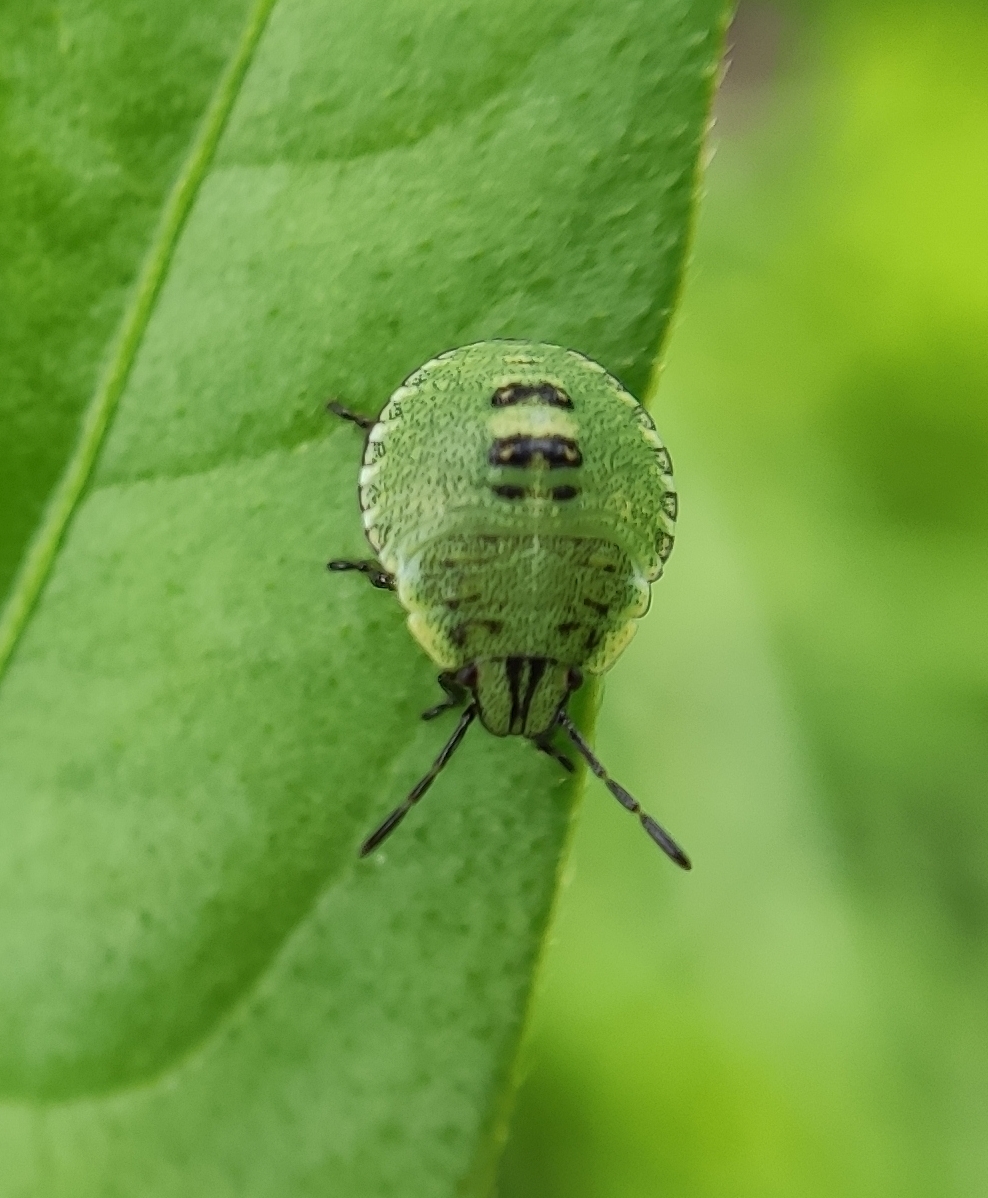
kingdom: Animalia
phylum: Arthropoda
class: Insecta
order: Hemiptera
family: Pentatomidae
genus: Palomena
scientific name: Palomena prasina
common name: Green shieldbug
